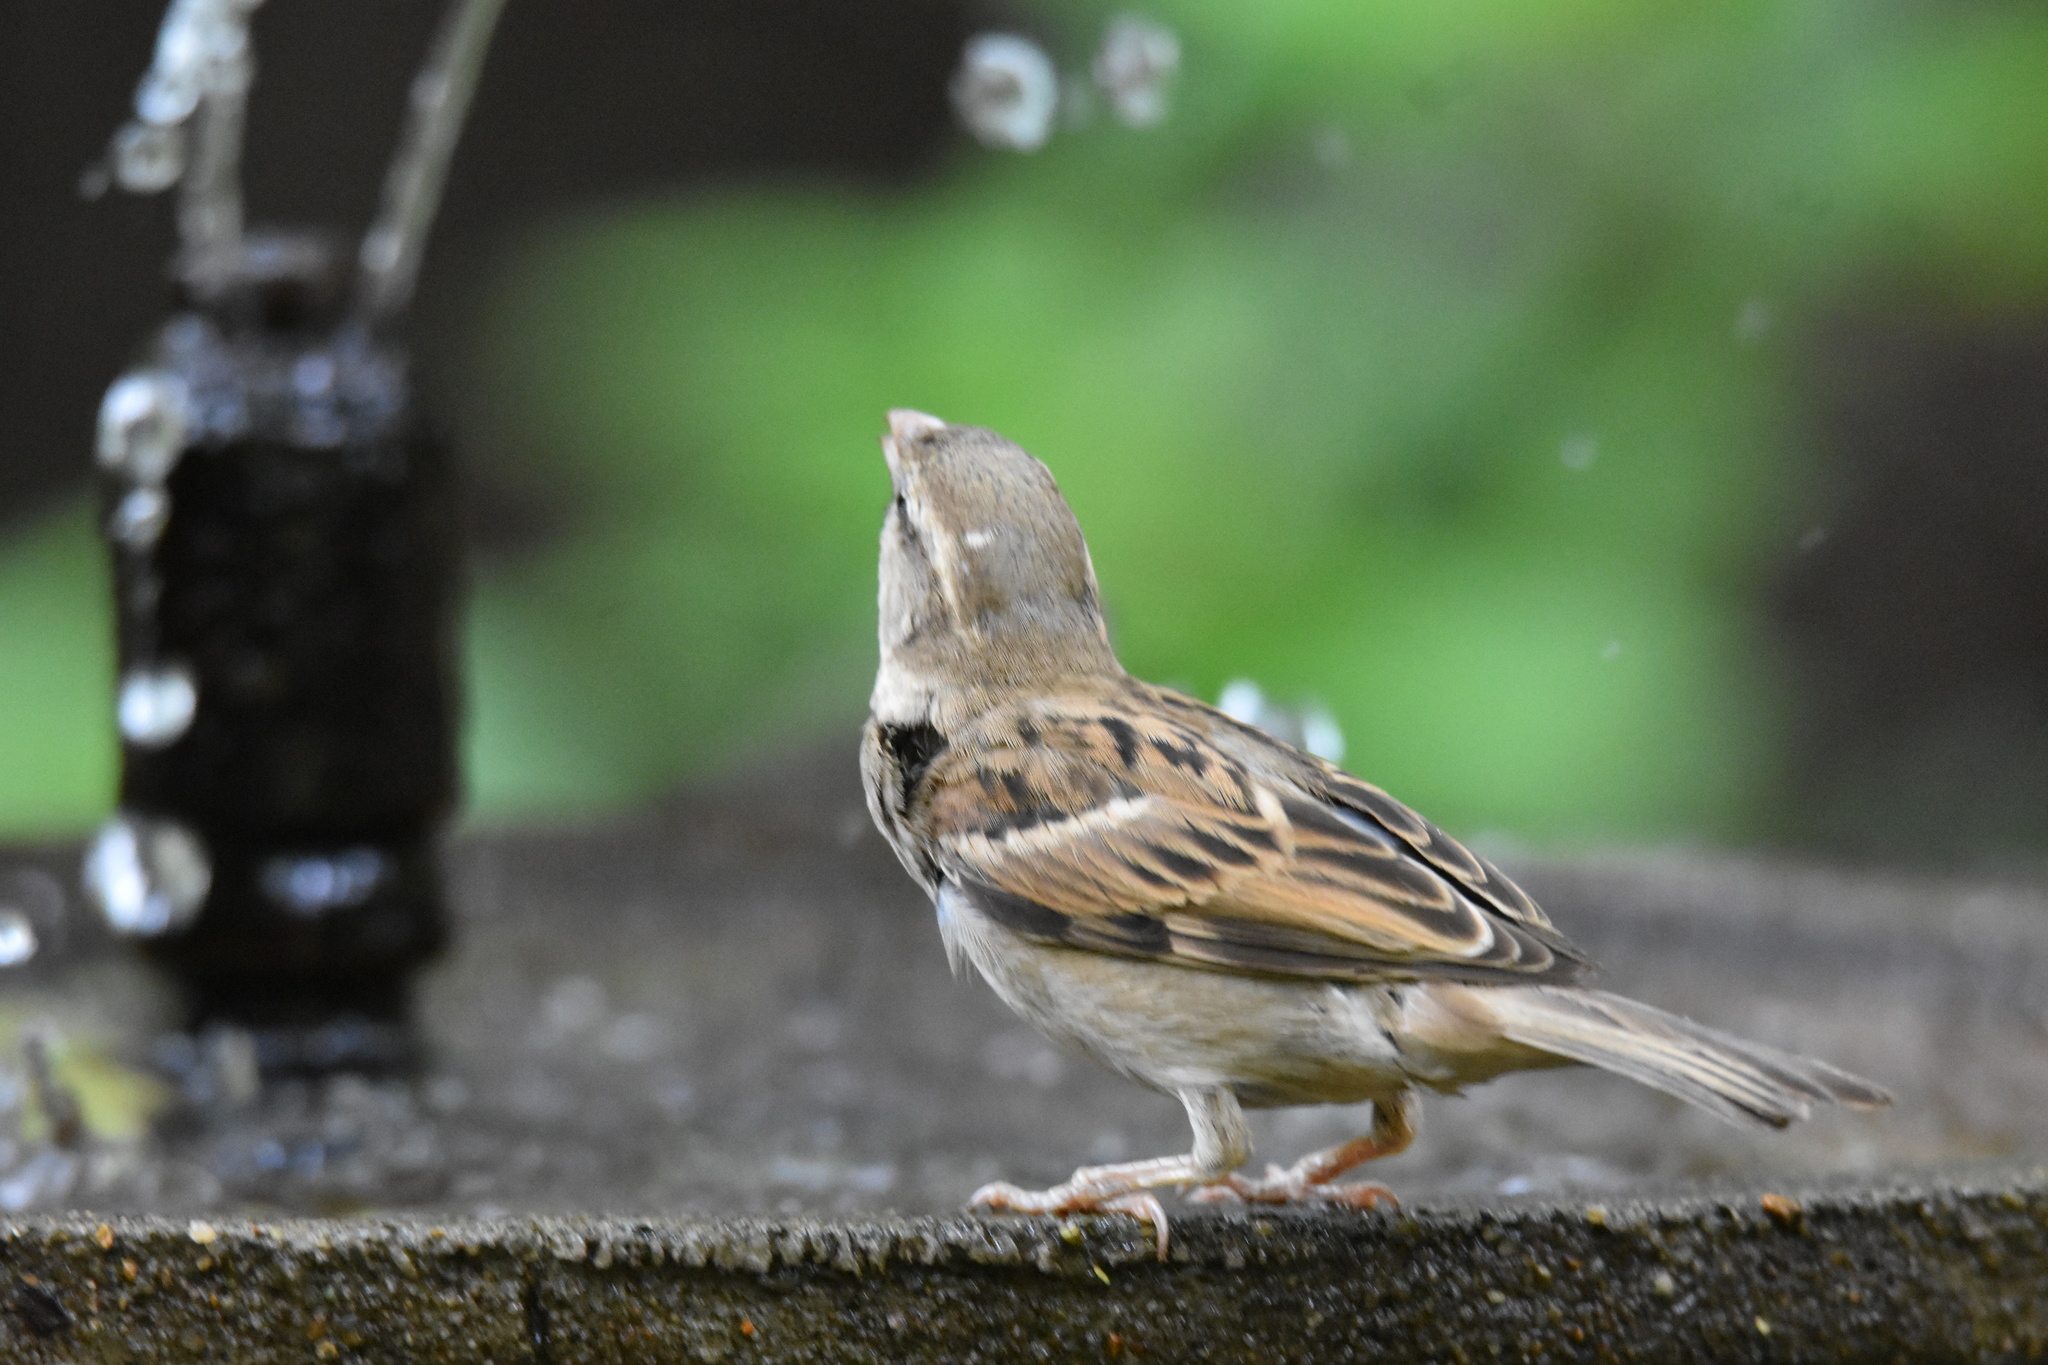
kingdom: Animalia
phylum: Chordata
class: Aves
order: Passeriformes
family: Passeridae
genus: Passer
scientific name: Passer domesticus
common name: House sparrow
